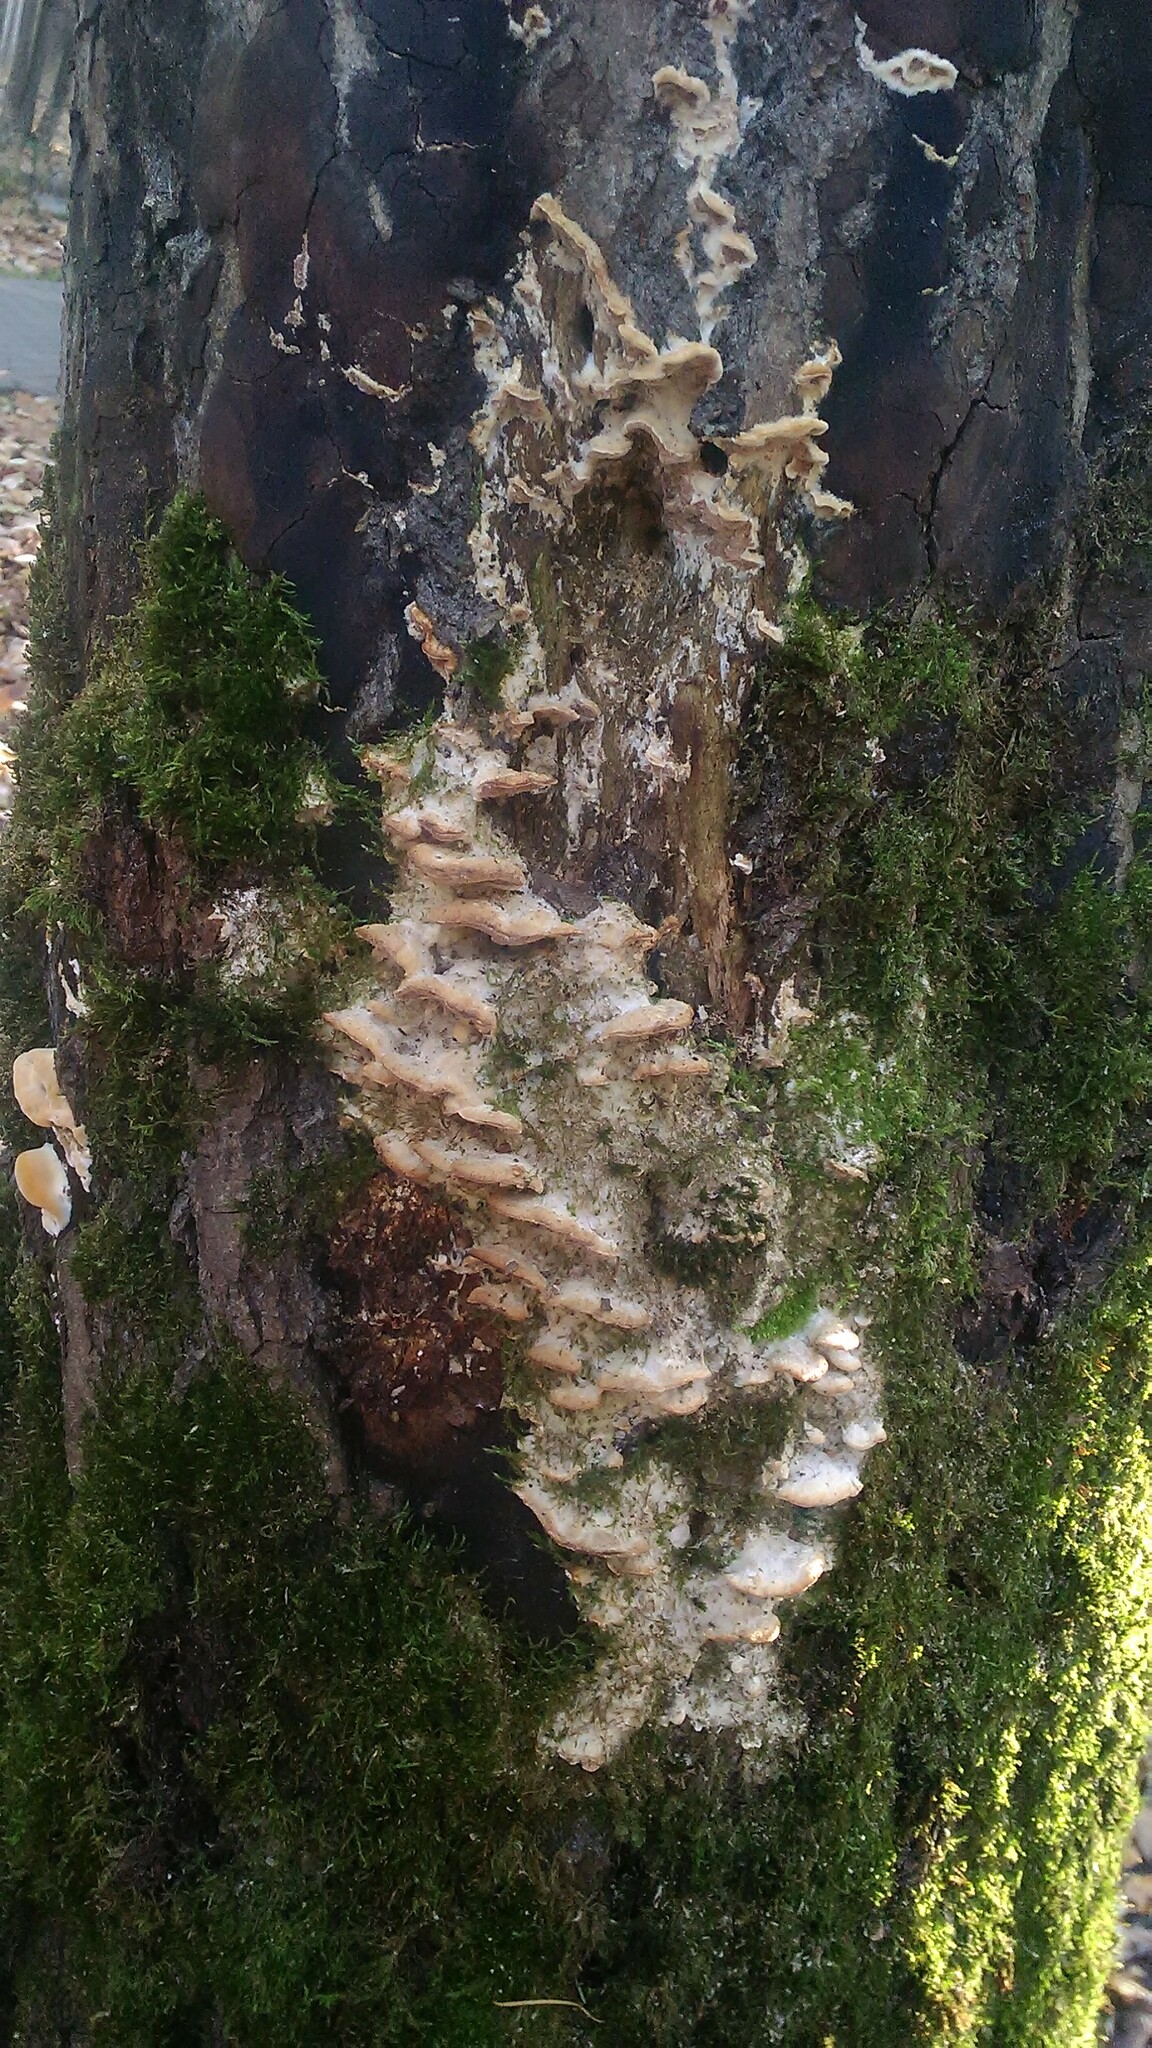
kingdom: Fungi
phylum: Basidiomycota
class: Agaricomycetes
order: Hymenochaetales
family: Oxyporaceae
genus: Oxyporus
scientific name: Oxyporus populinus
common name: Poplar bracket
